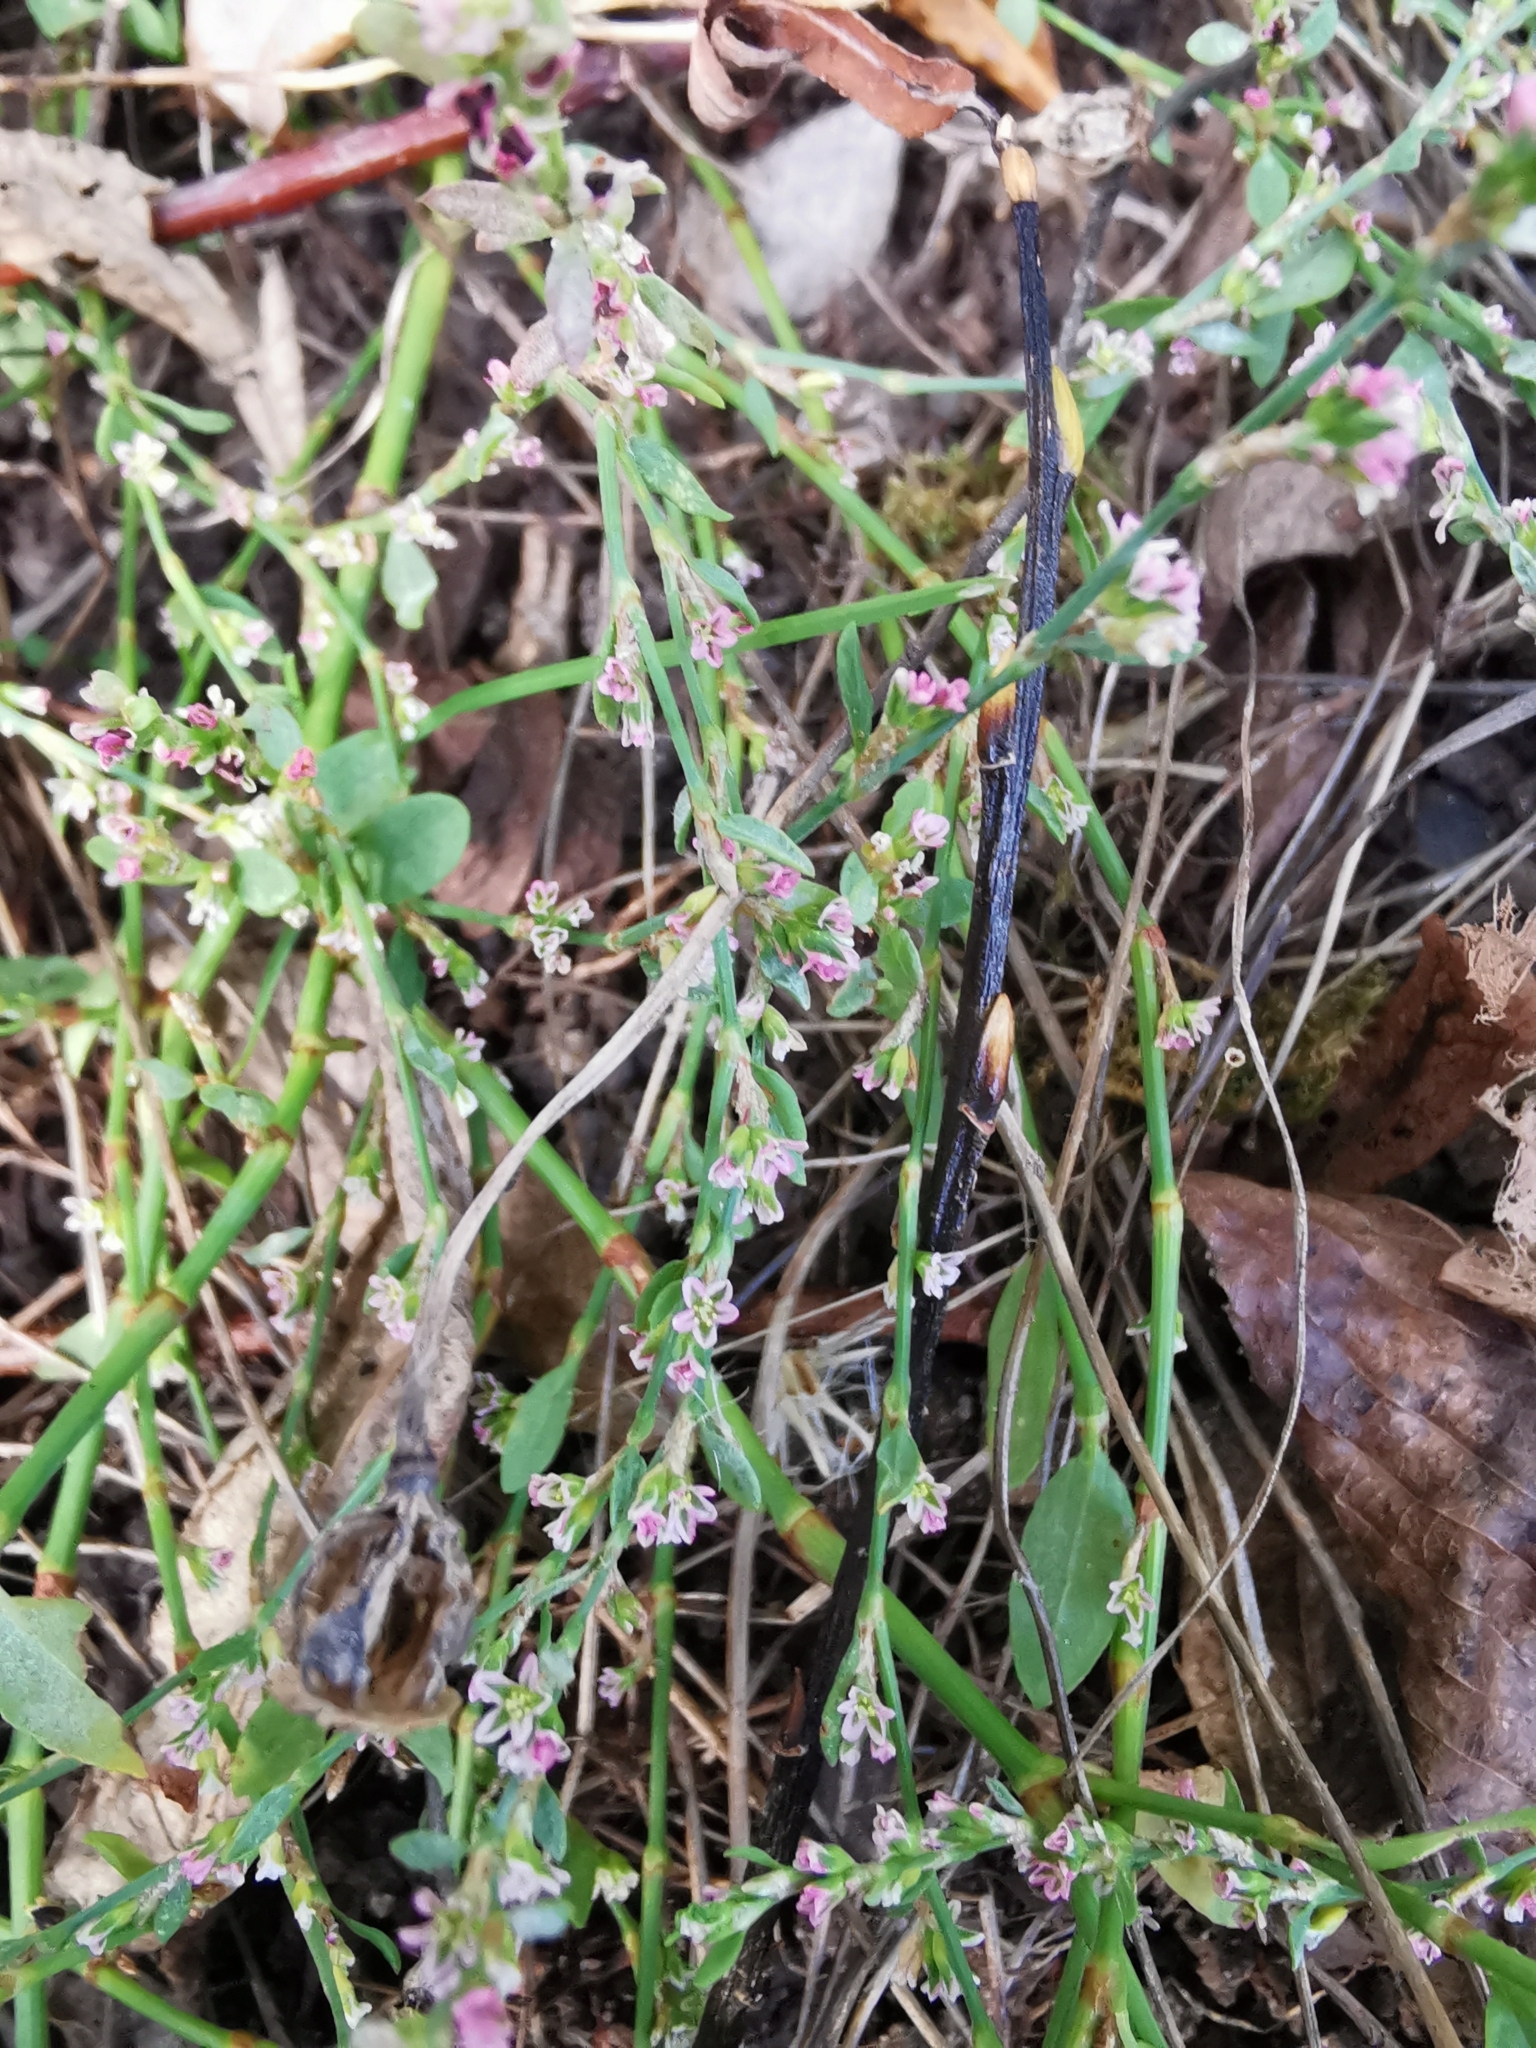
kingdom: Plantae
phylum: Tracheophyta
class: Magnoliopsida
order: Caryophyllales
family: Polygonaceae
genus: Polygonum
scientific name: Polygonum aviculare
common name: Prostrate knotweed
